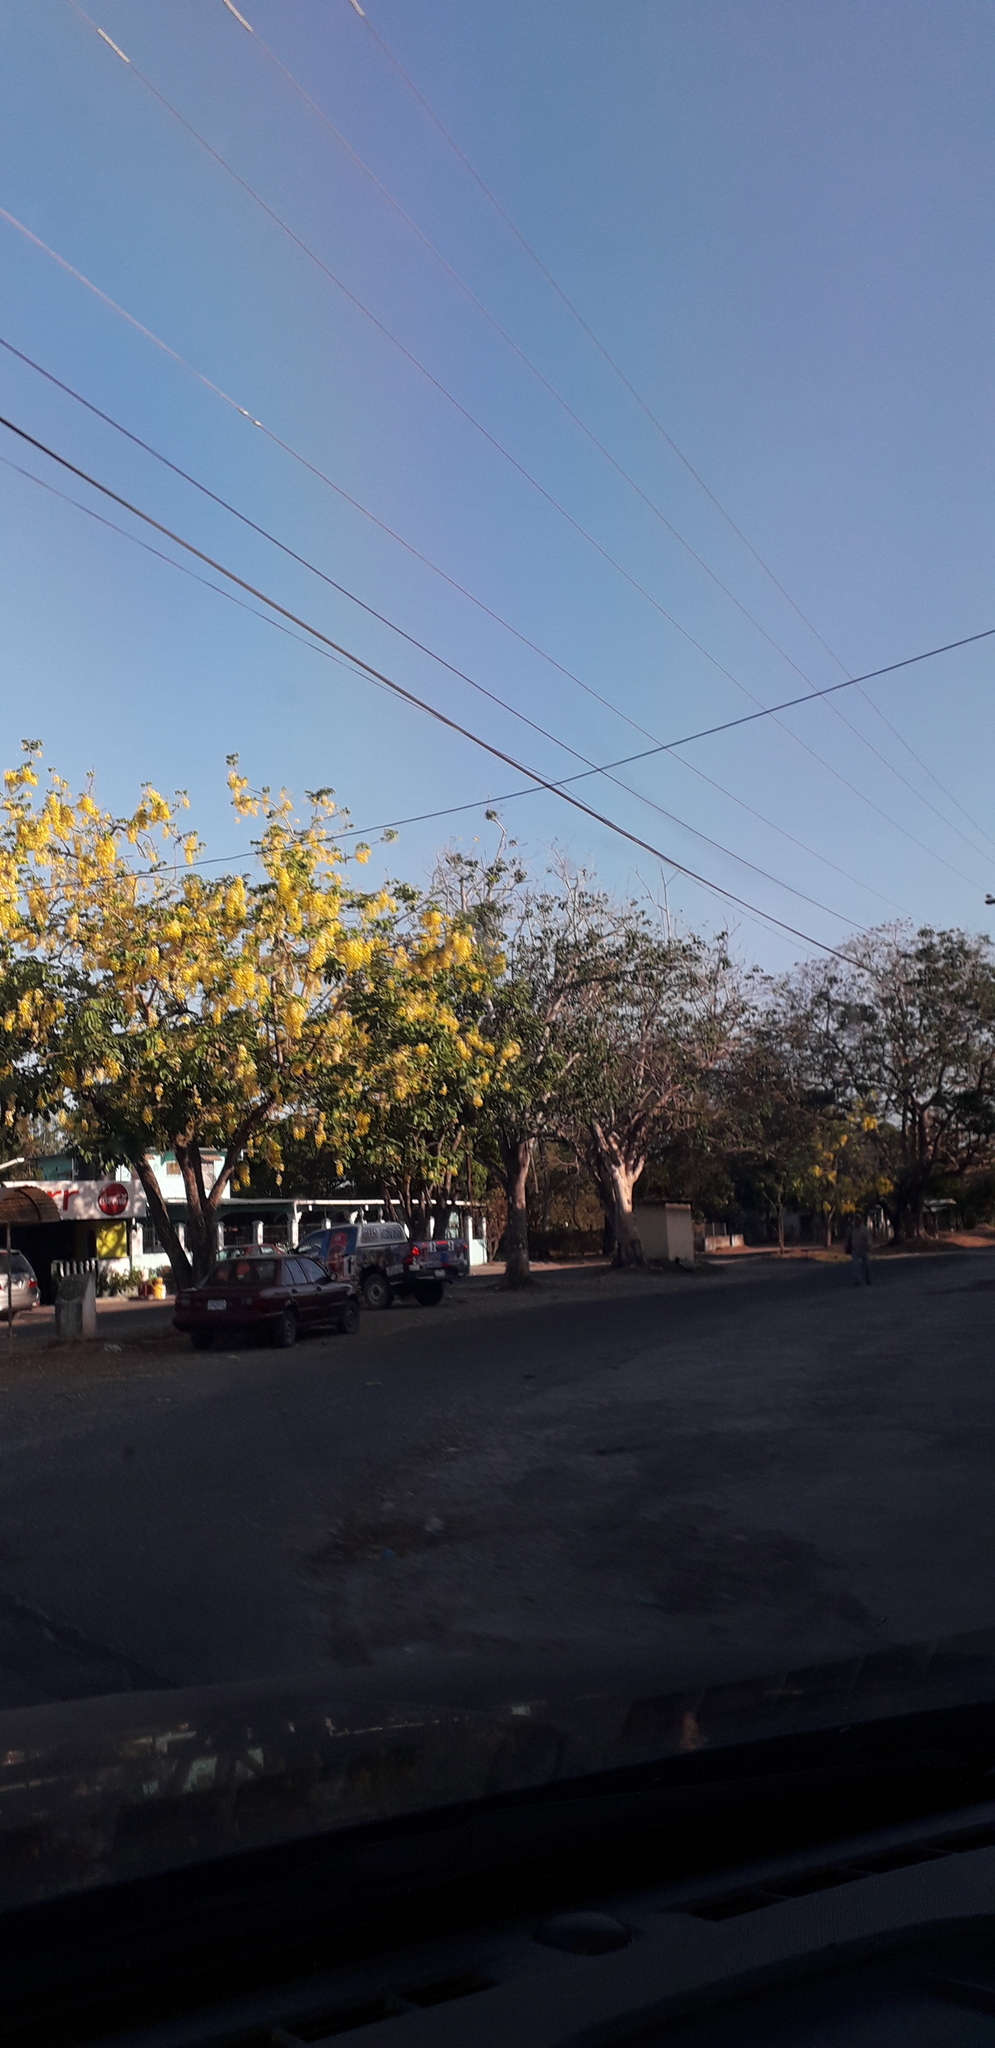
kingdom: Plantae
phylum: Tracheophyta
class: Magnoliopsida
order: Fabales
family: Fabaceae
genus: Cassia
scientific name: Cassia fistula
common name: Golden shower
